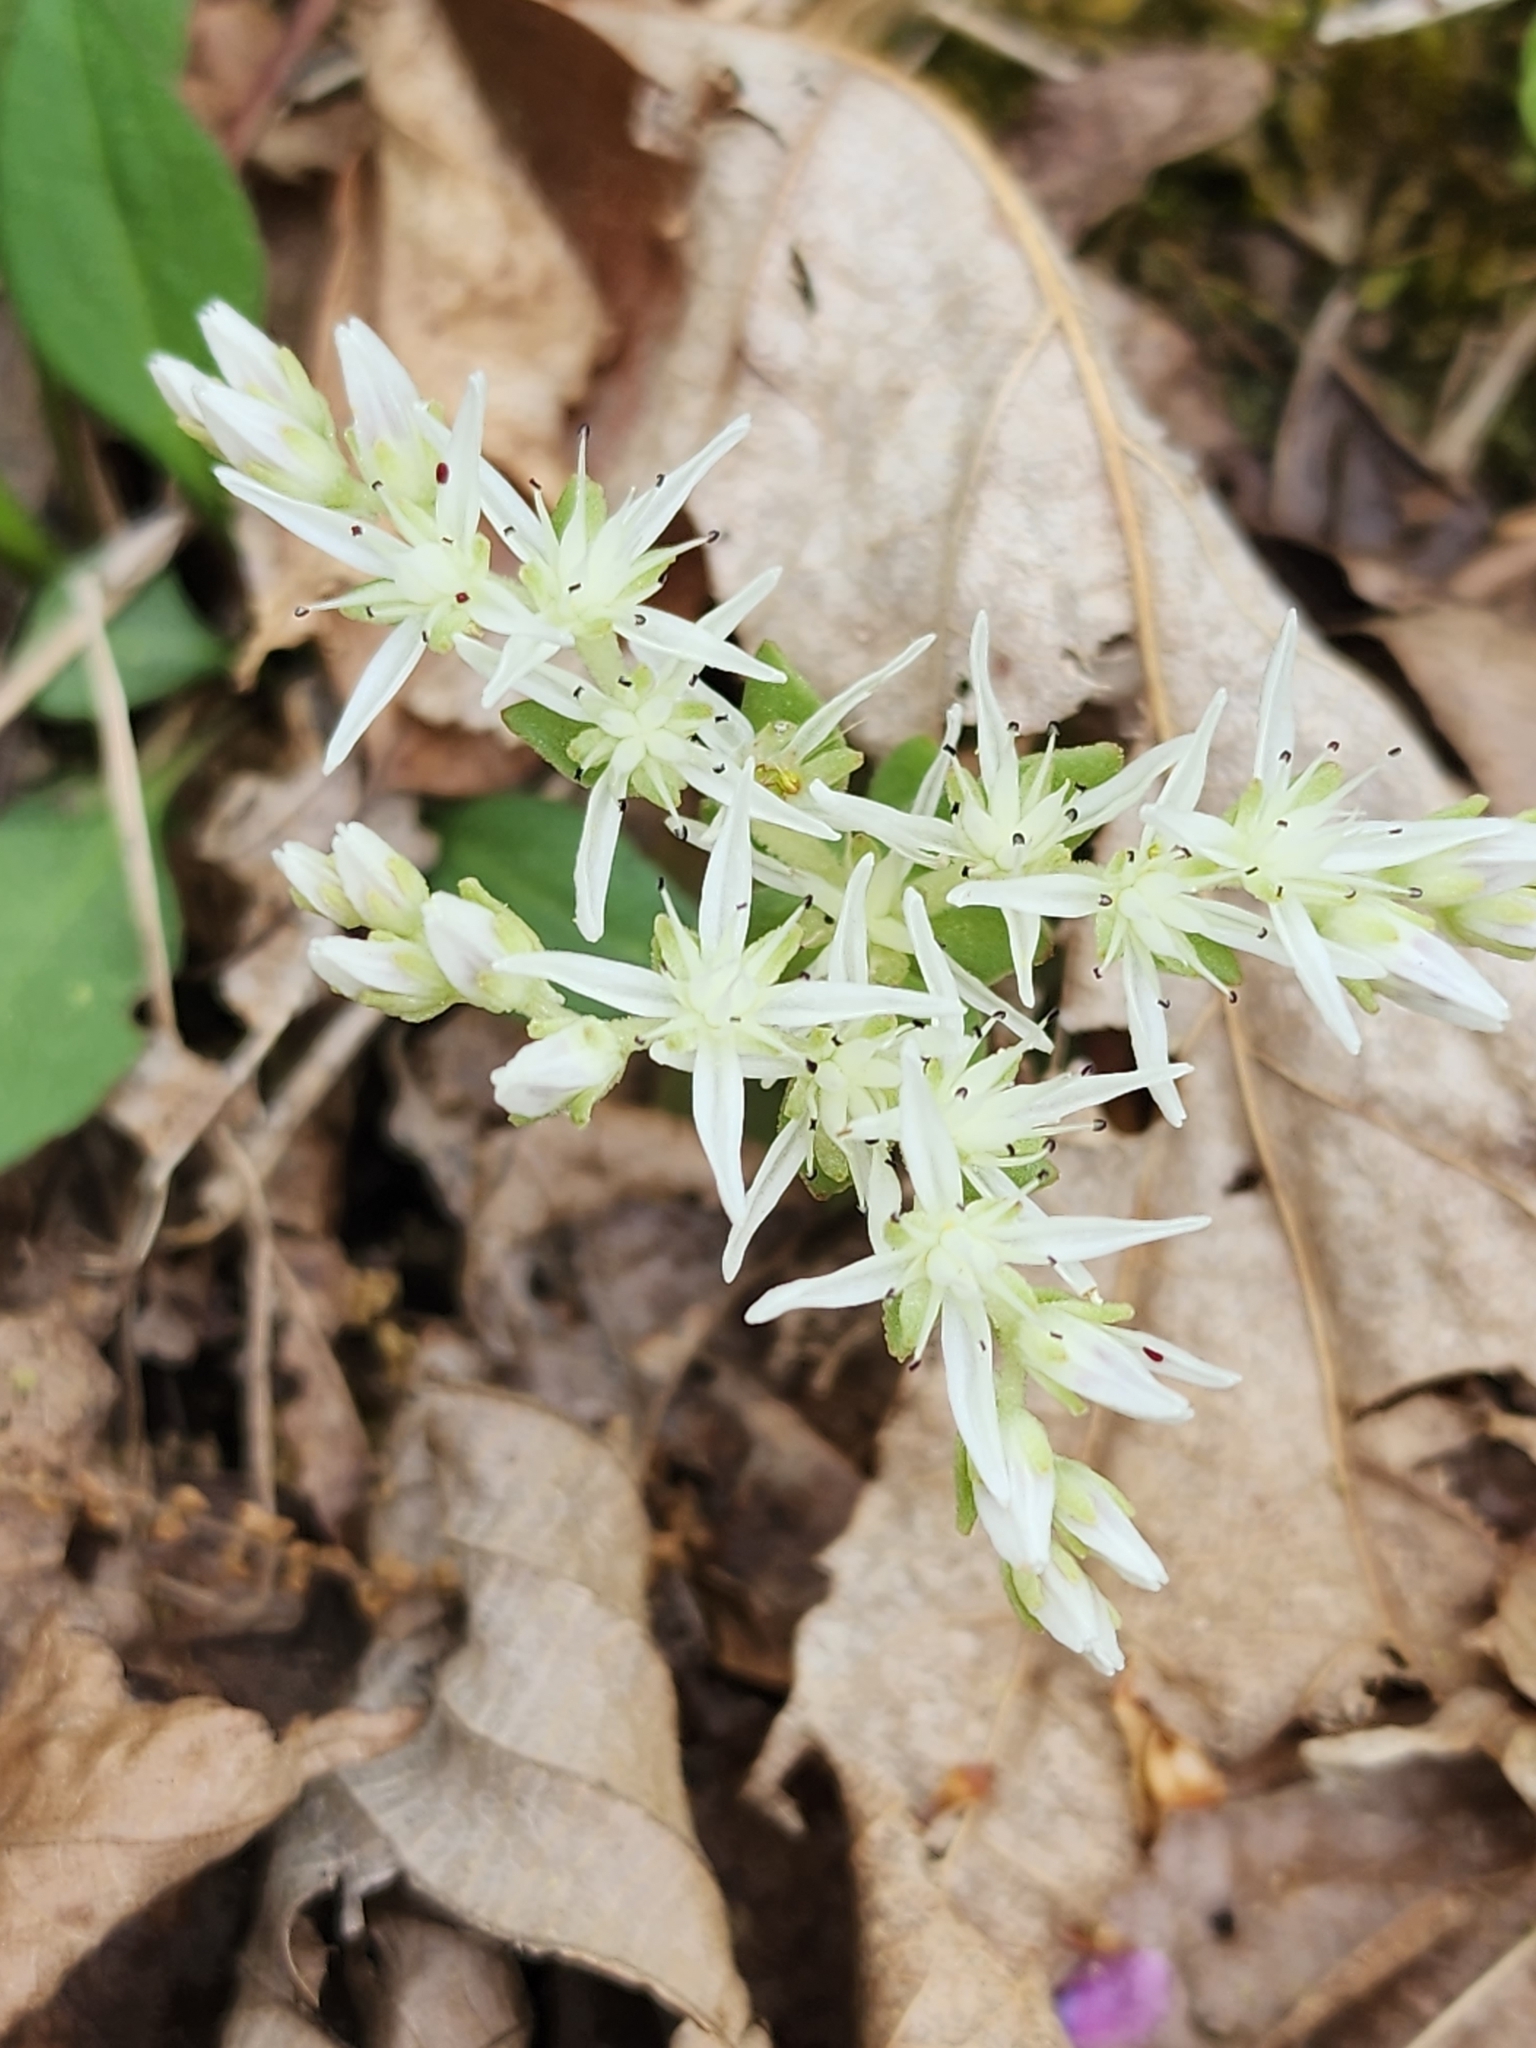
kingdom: Plantae
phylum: Tracheophyta
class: Magnoliopsida
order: Saxifragales
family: Crassulaceae
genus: Sedum
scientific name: Sedum ternatum
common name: Wild stonecrop
